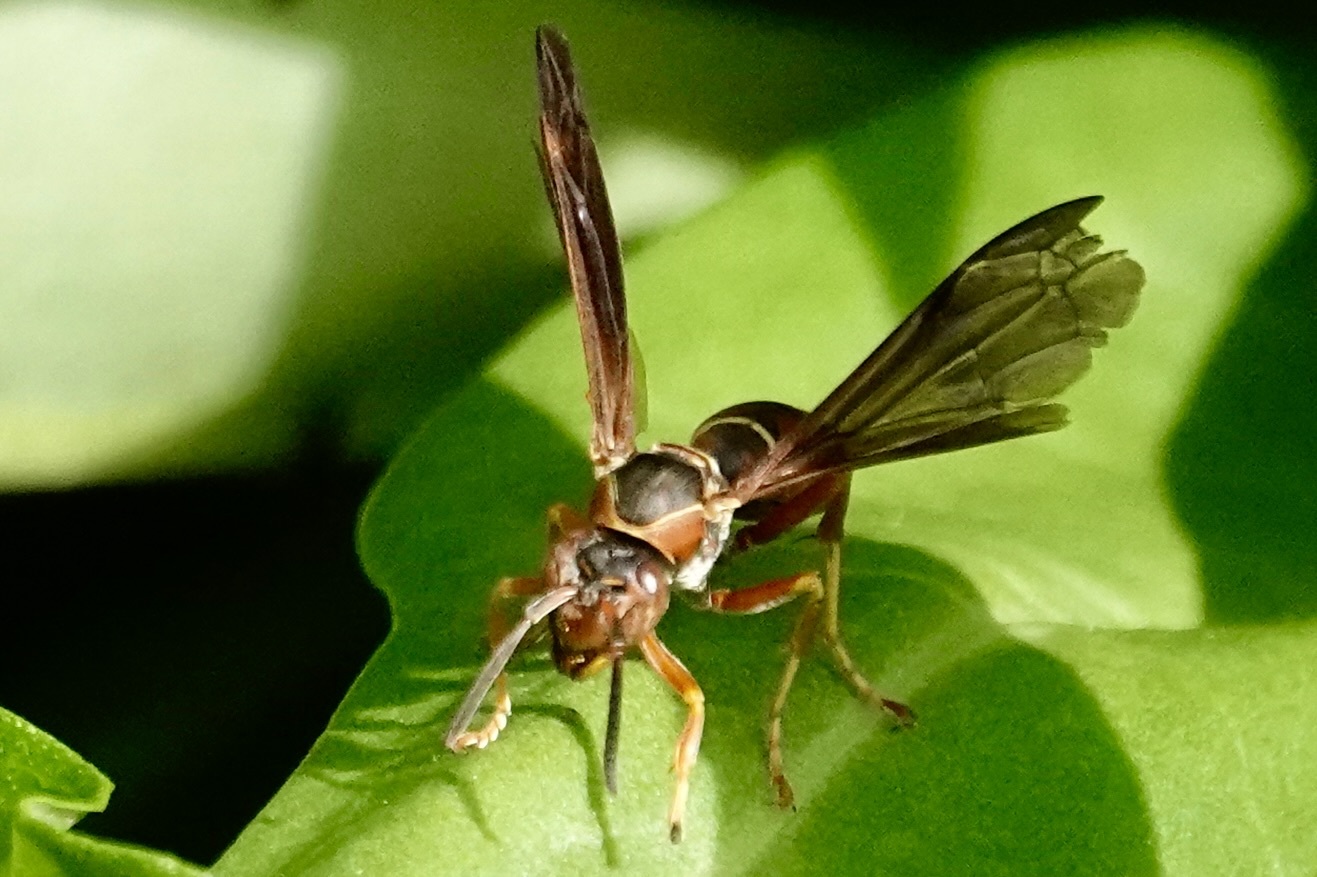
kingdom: Animalia
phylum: Arthropoda
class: Insecta
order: Hymenoptera
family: Eumenidae
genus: Polistes
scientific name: Polistes fuscatus
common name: Dark paper wasp
